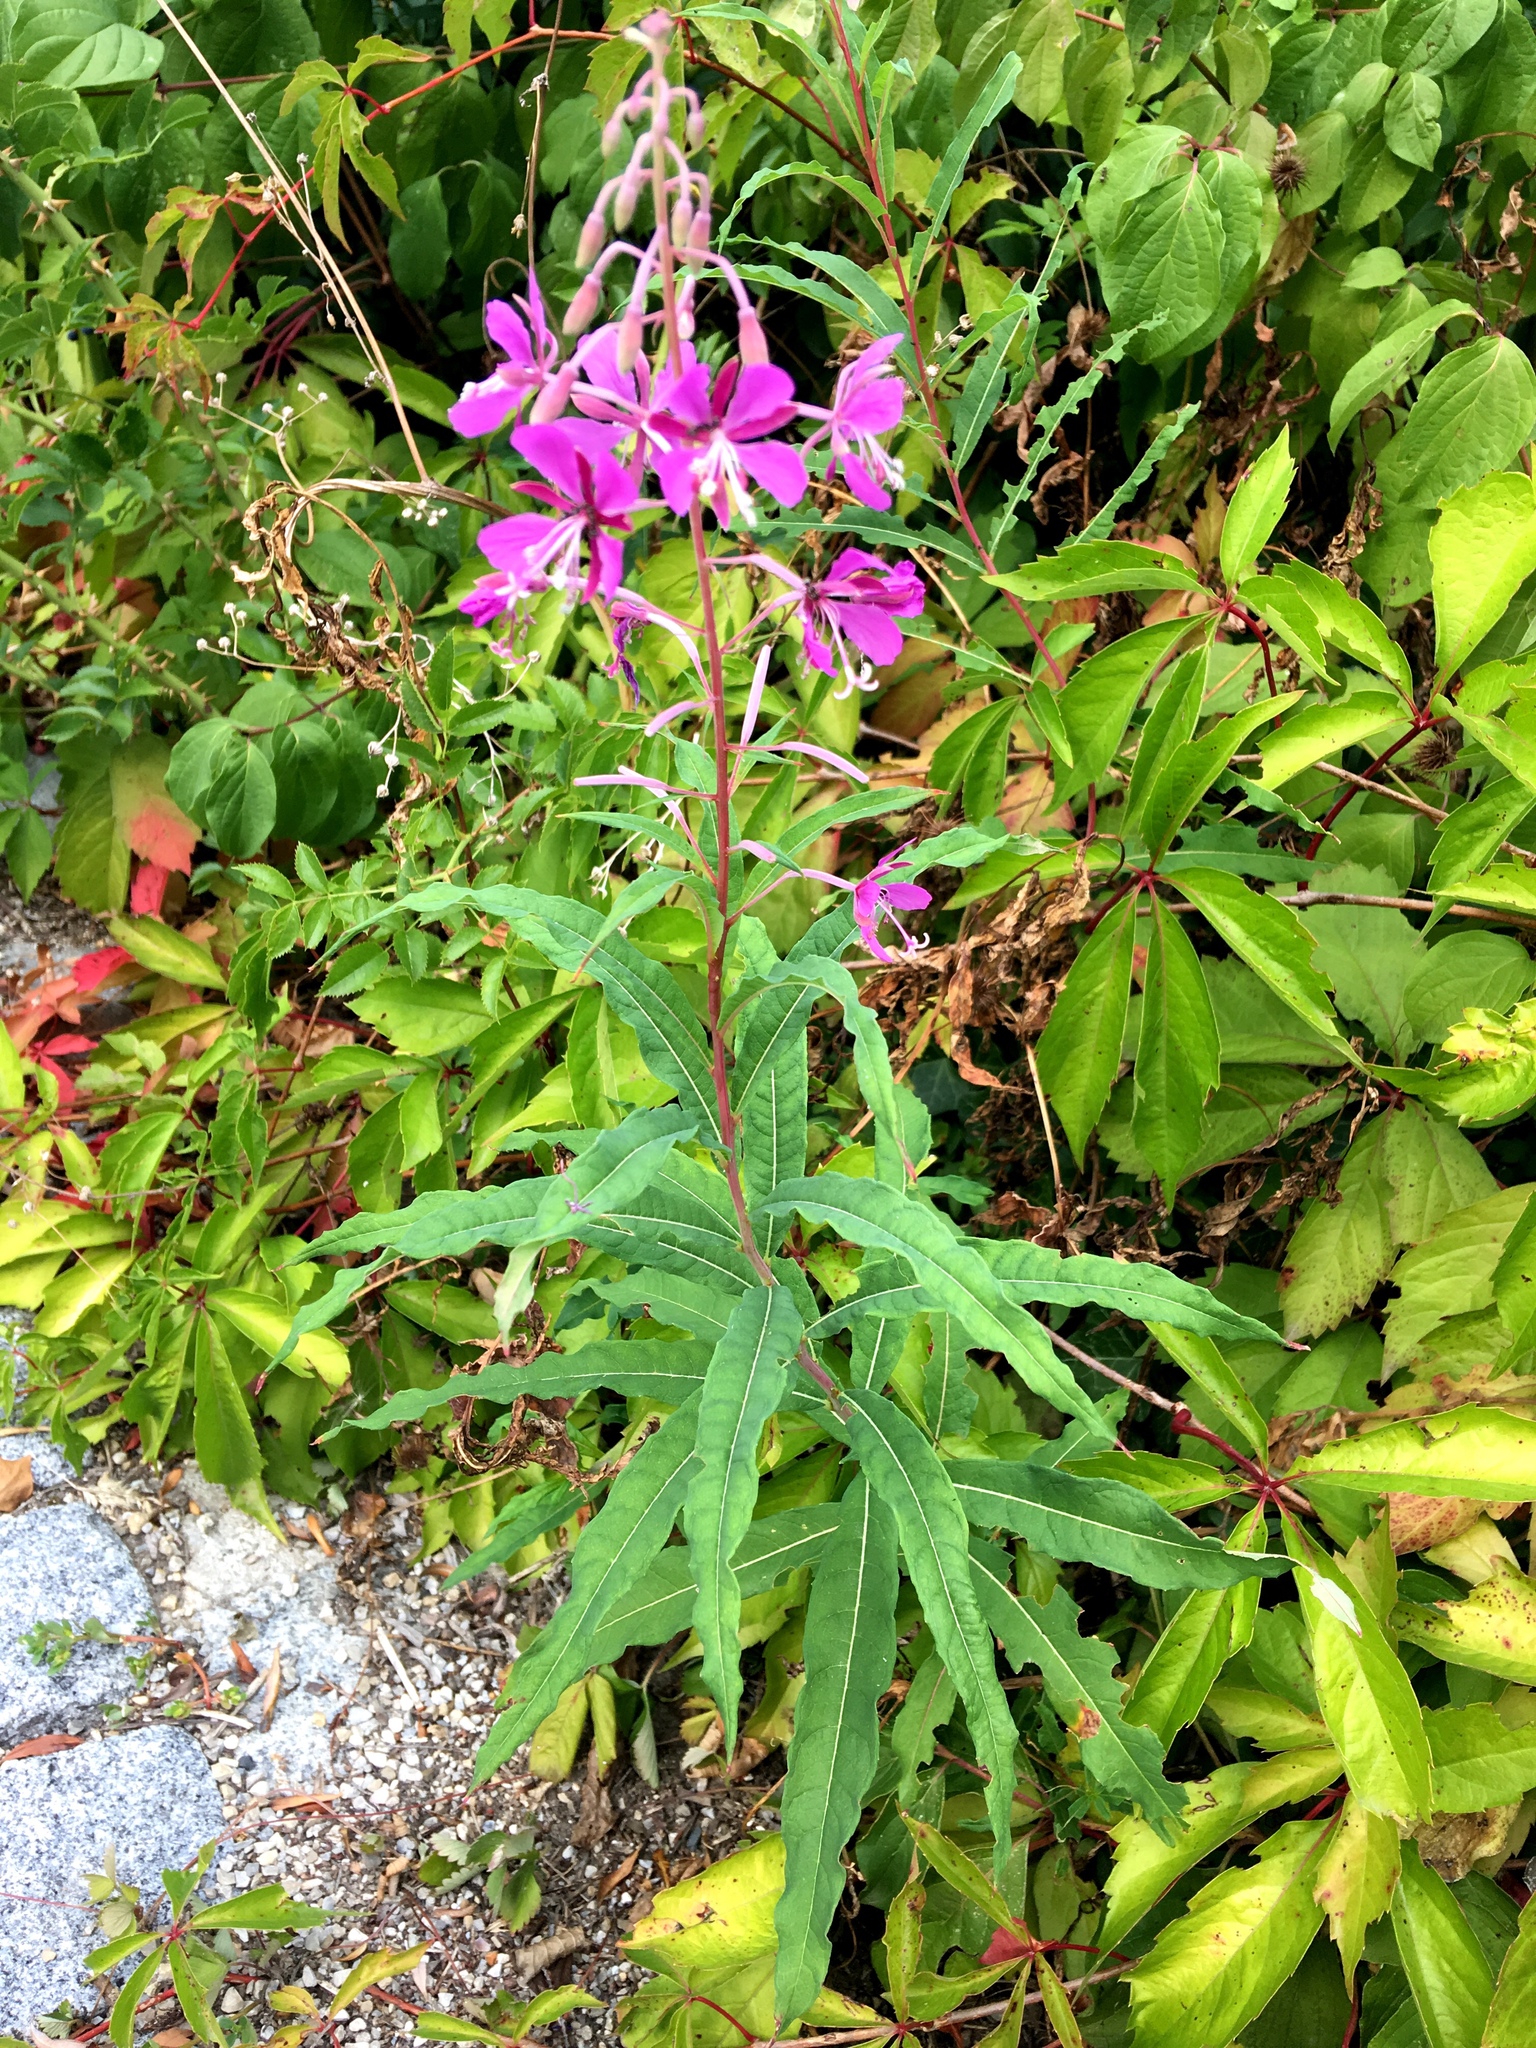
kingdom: Plantae
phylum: Tracheophyta
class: Magnoliopsida
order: Myrtales
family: Onagraceae
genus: Chamaenerion
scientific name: Chamaenerion angustifolium
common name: Fireweed
